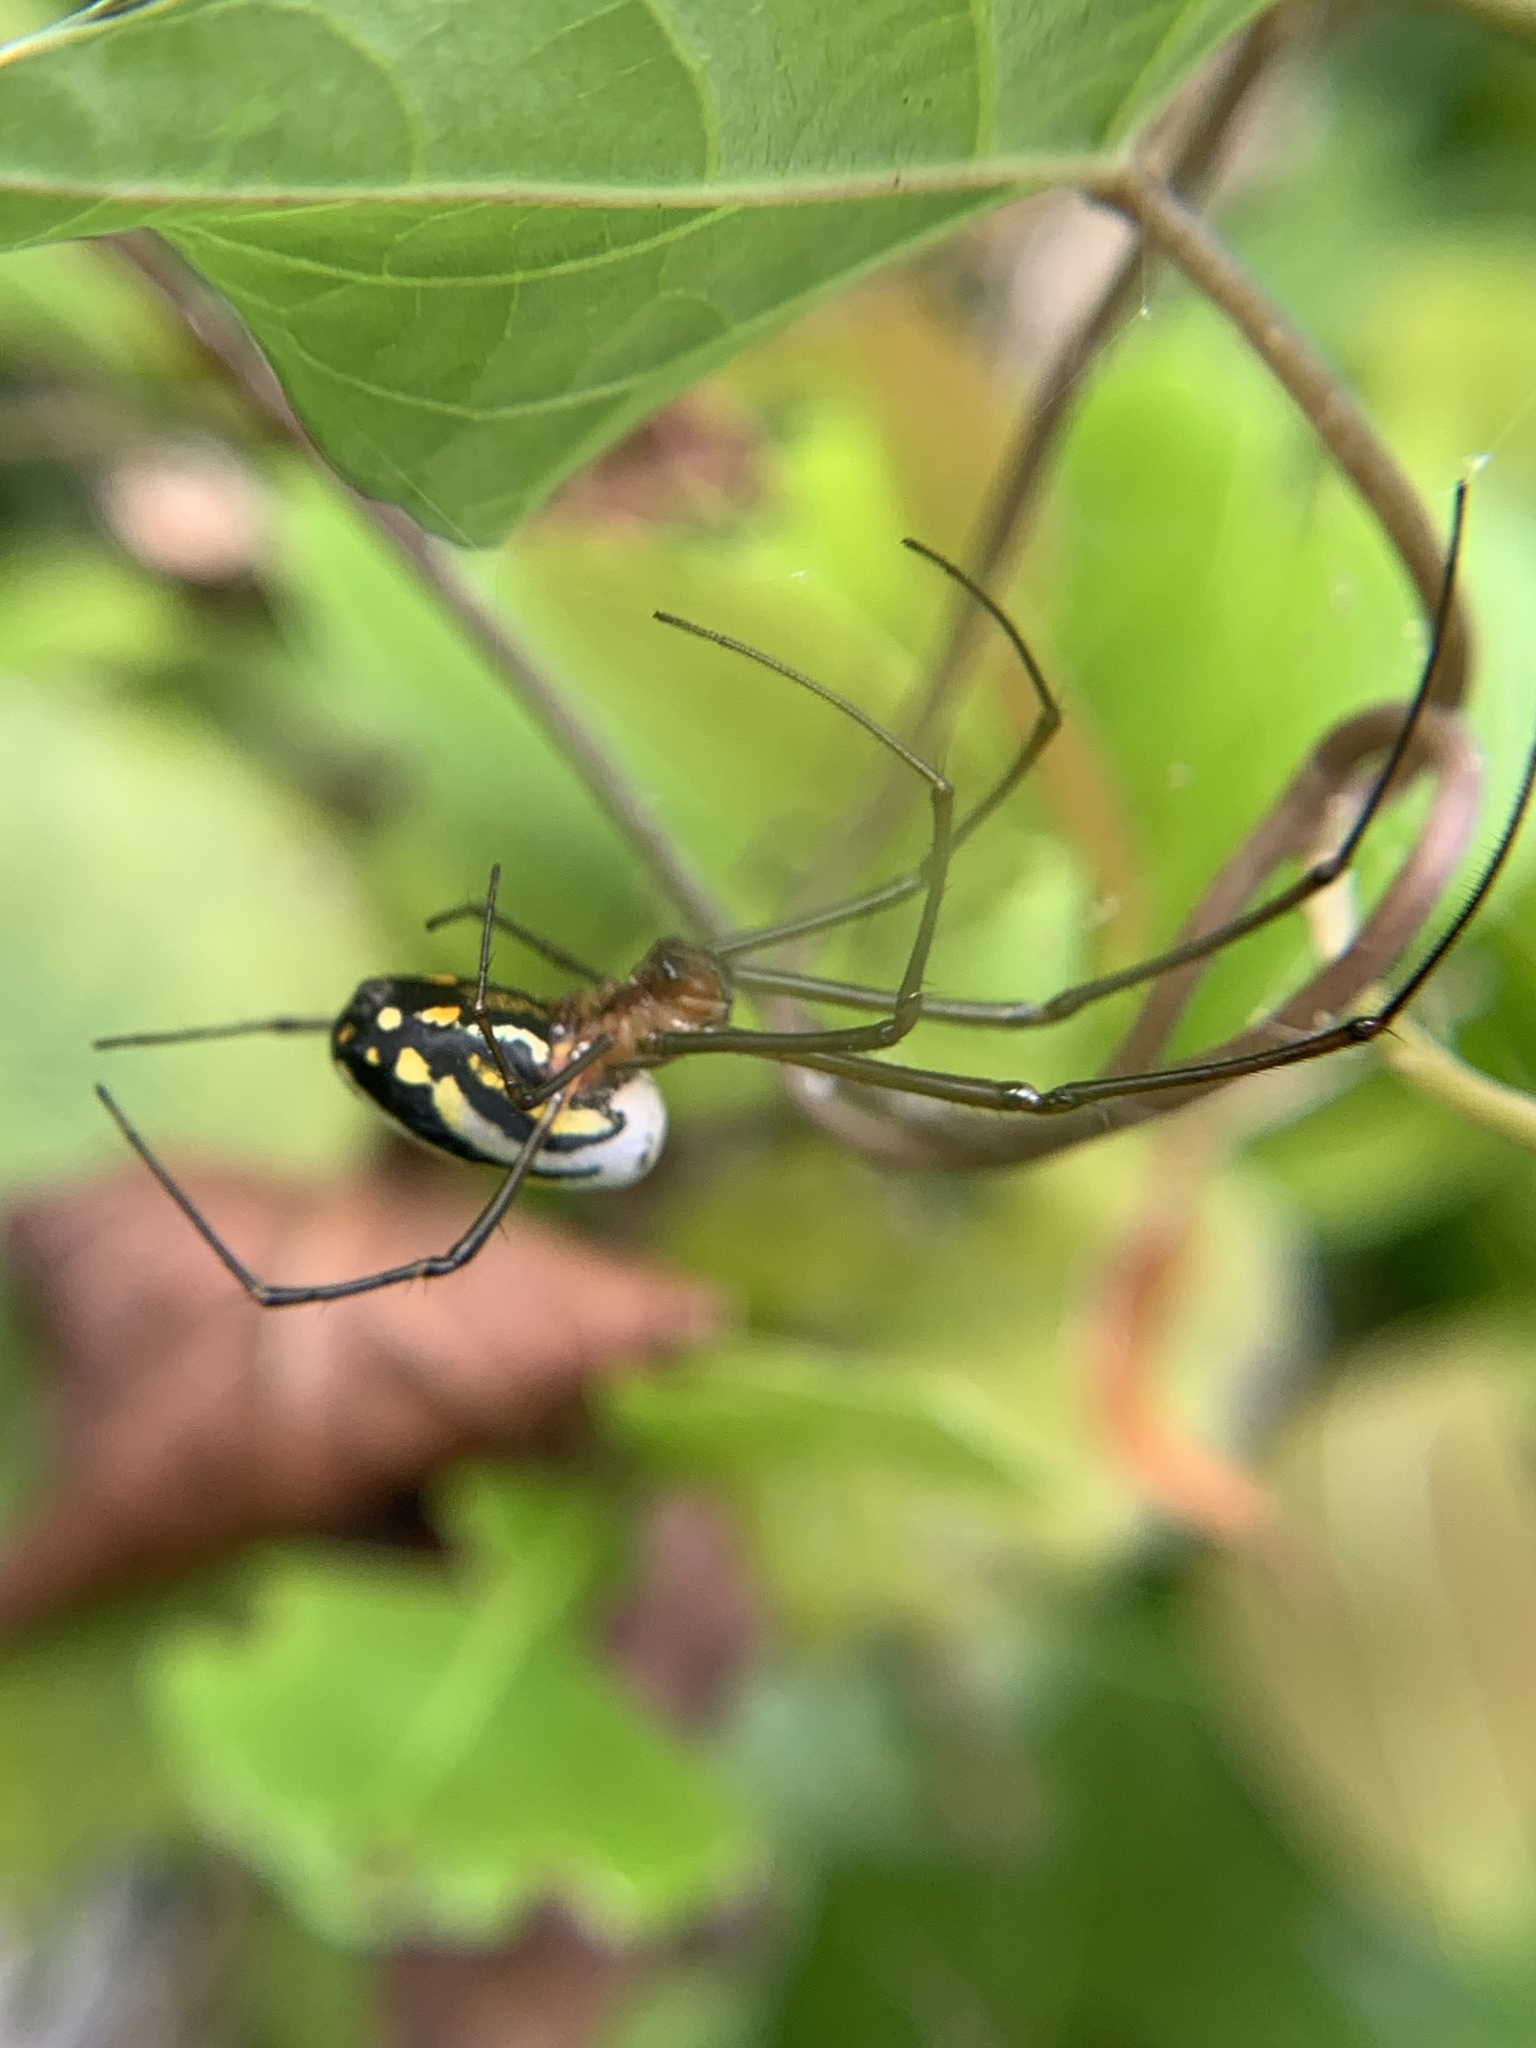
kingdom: Animalia
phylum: Arthropoda
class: Arachnida
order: Araneae
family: Tetragnathidae
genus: Leucauge
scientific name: Leucauge argyra
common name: Longjawed orb weavers
